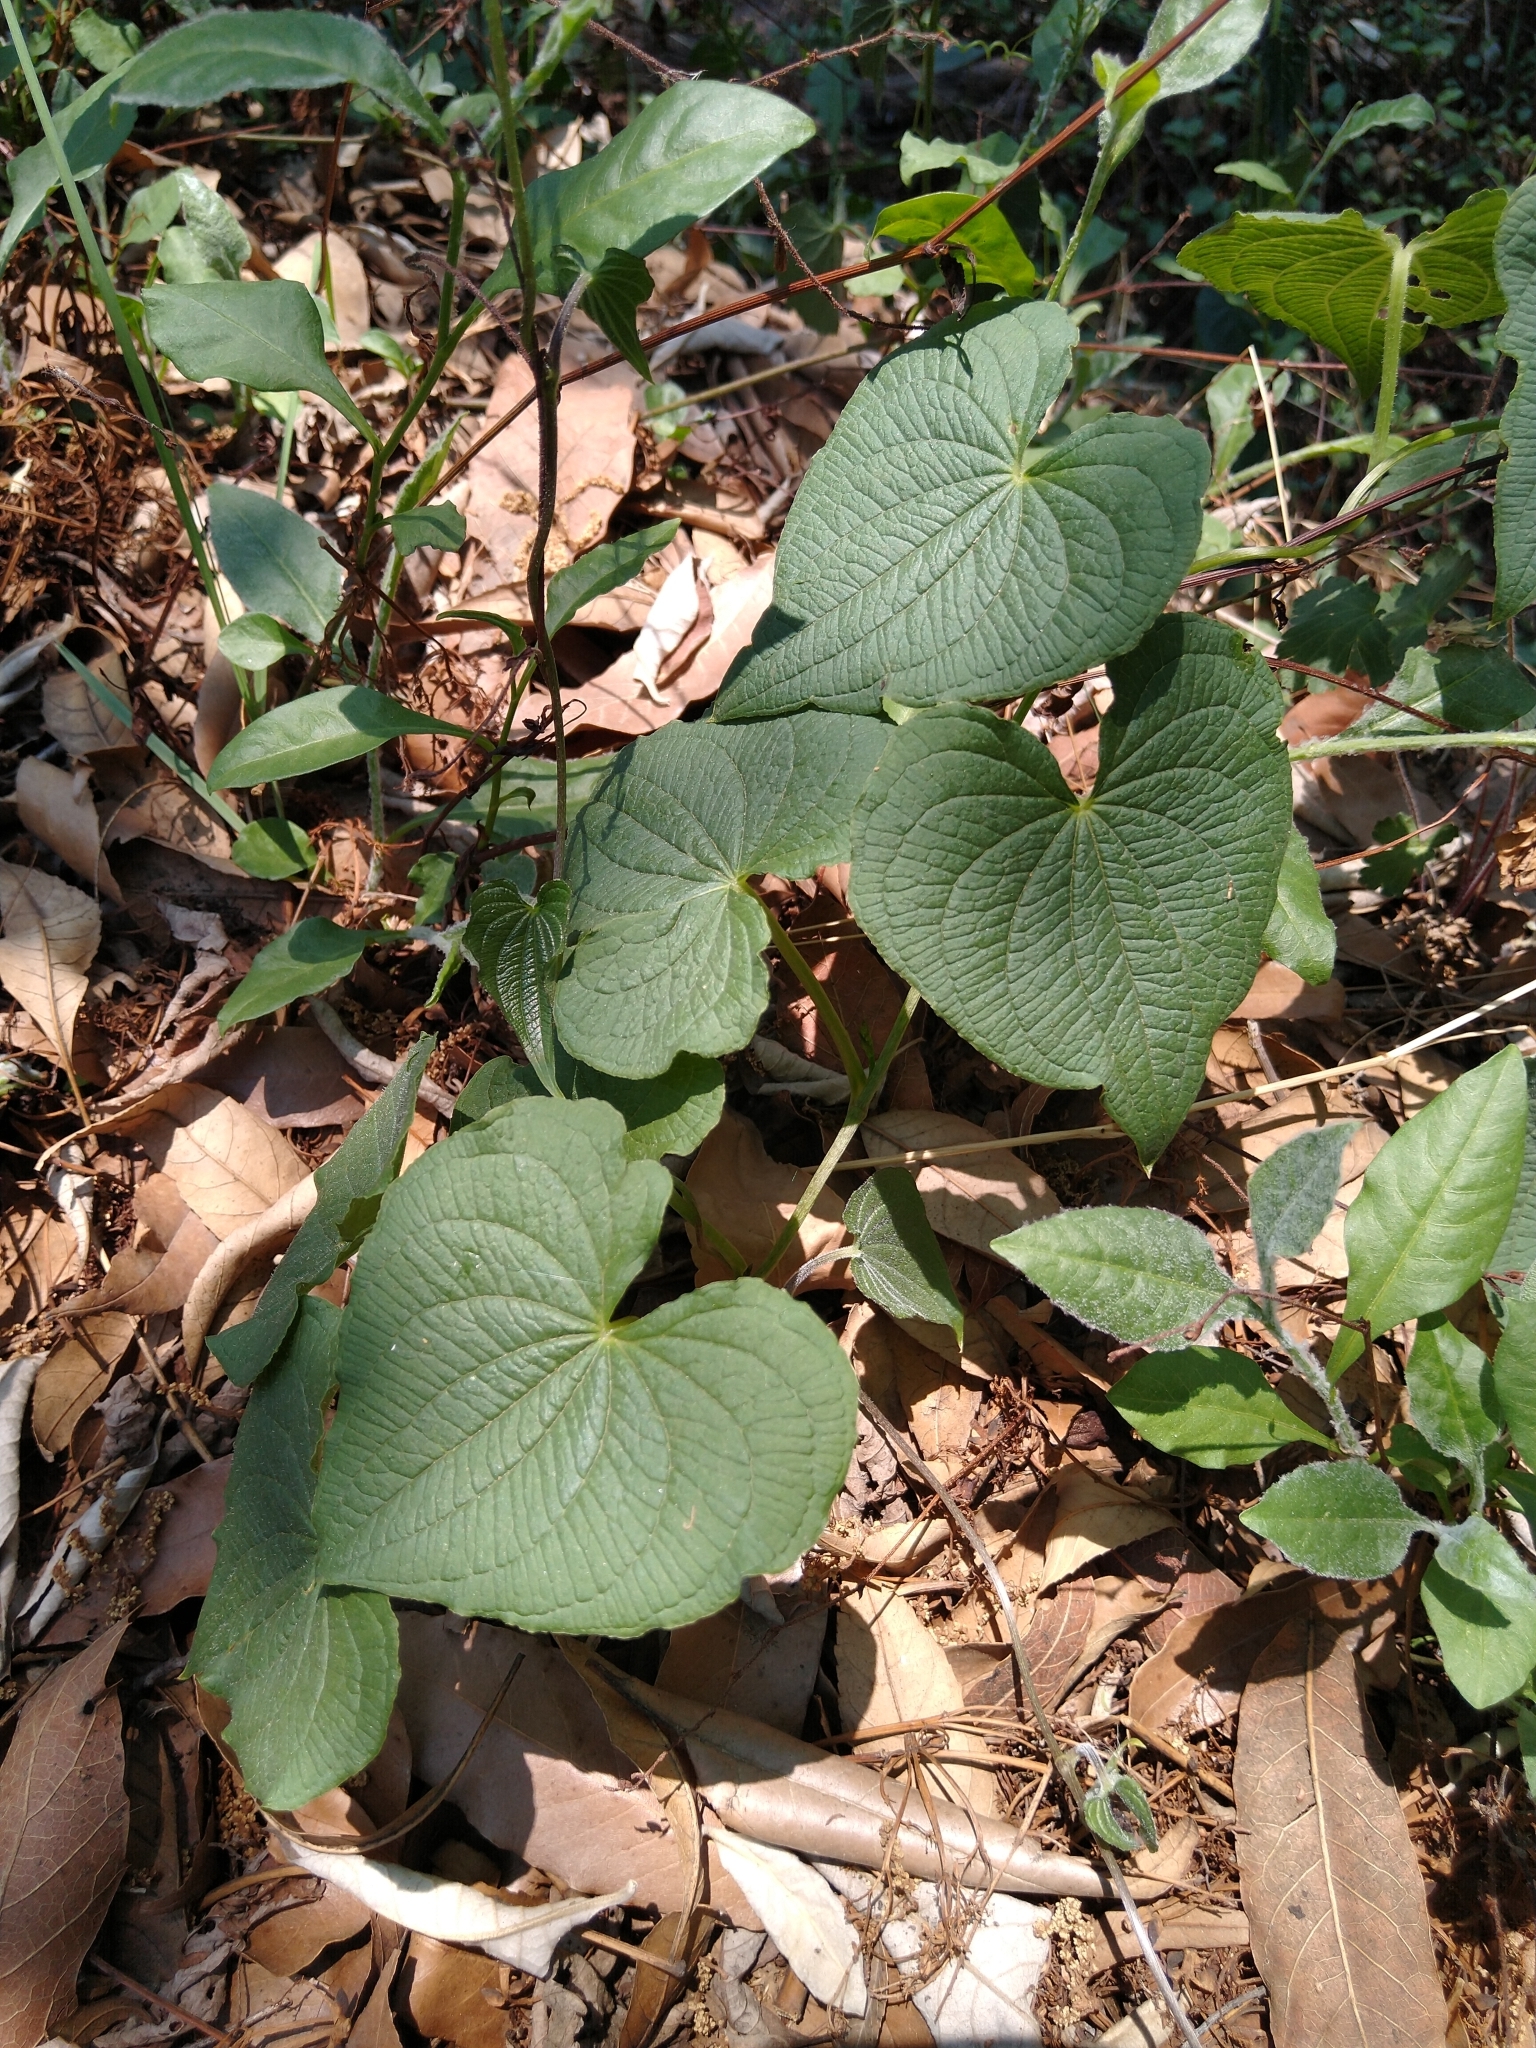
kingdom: Plantae
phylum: Tracheophyta
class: Liliopsida
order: Dioscoreales
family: Dioscoreaceae
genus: Dioscorea
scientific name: Dioscorea galeottiana
